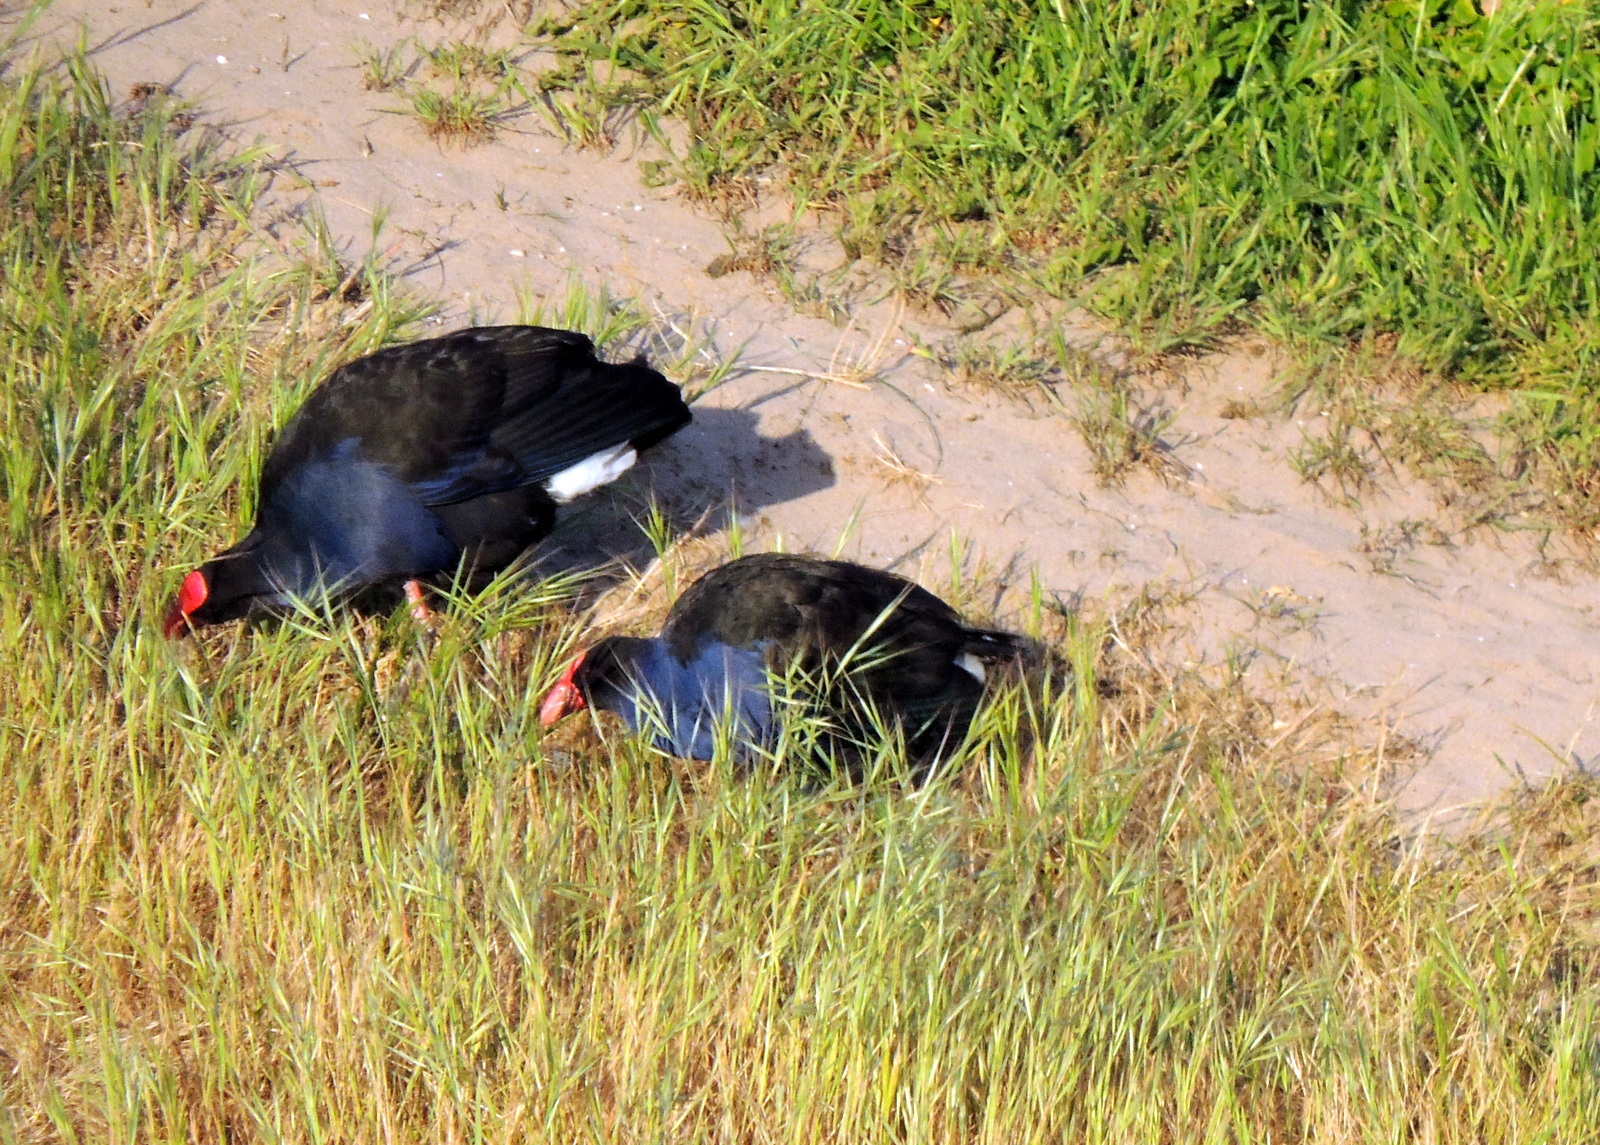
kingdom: Animalia
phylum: Chordata
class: Aves
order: Gruiformes
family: Rallidae
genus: Porphyrio
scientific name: Porphyrio melanotus
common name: Australasian swamphen
